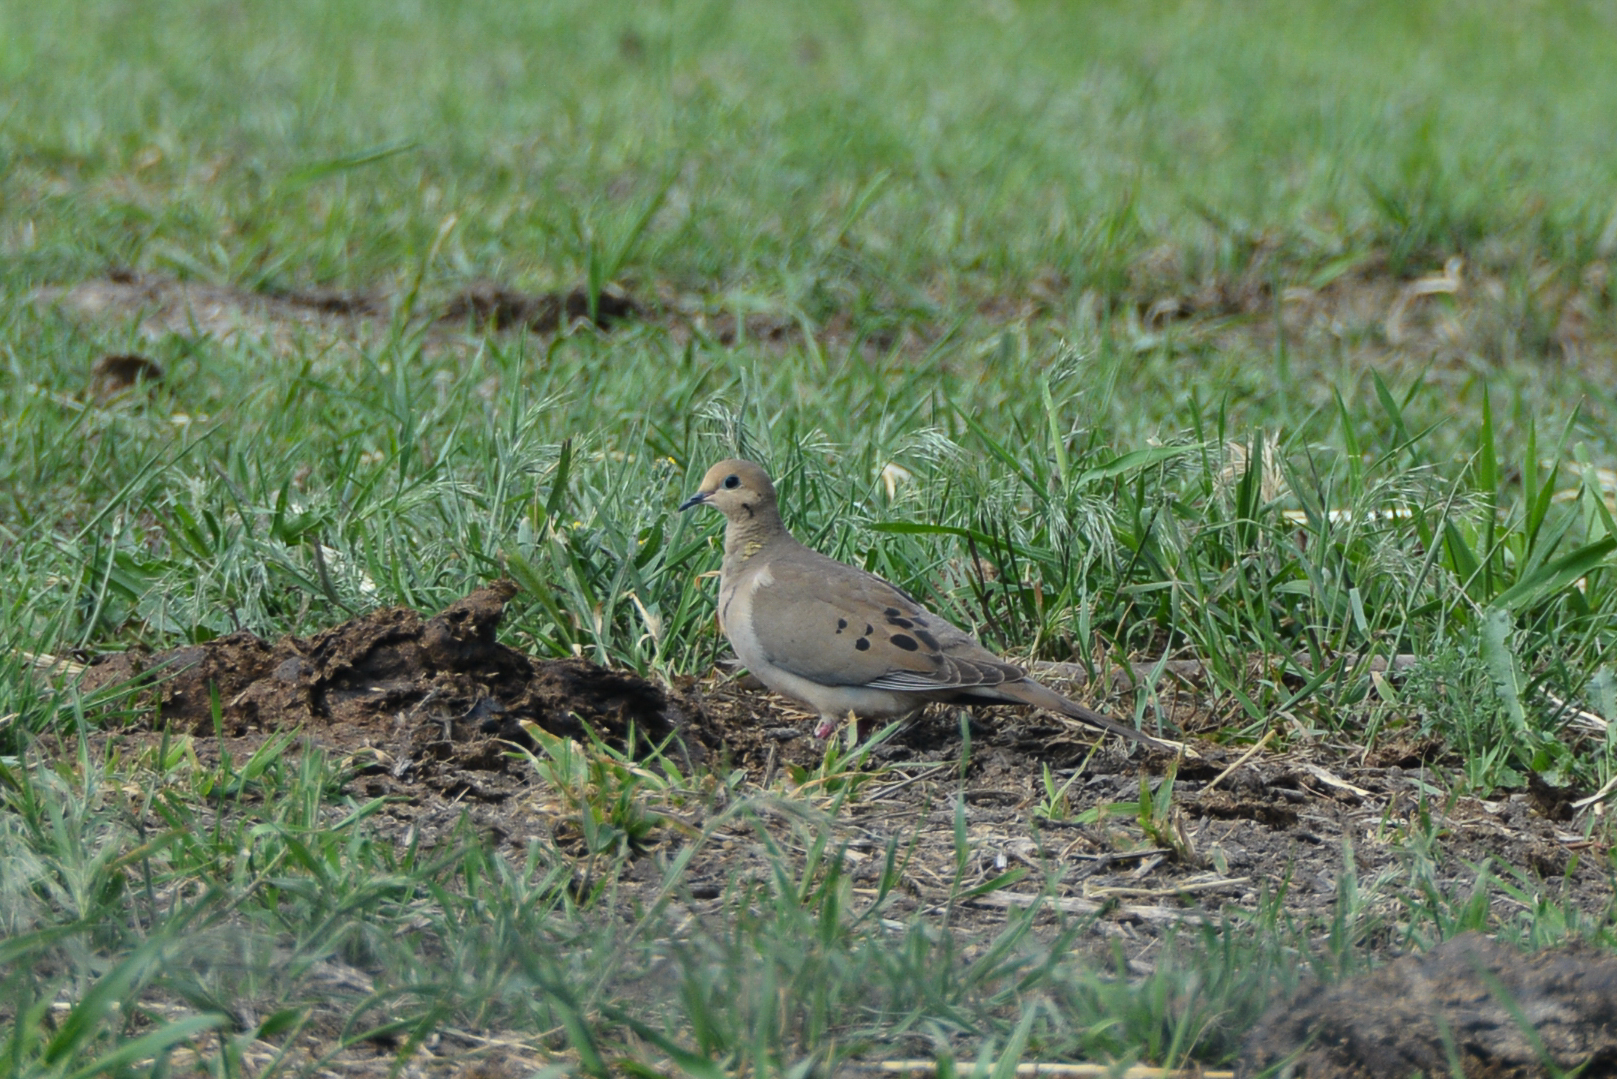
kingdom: Animalia
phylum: Chordata
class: Aves
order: Columbiformes
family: Columbidae
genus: Zenaida
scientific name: Zenaida macroura
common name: Mourning dove
